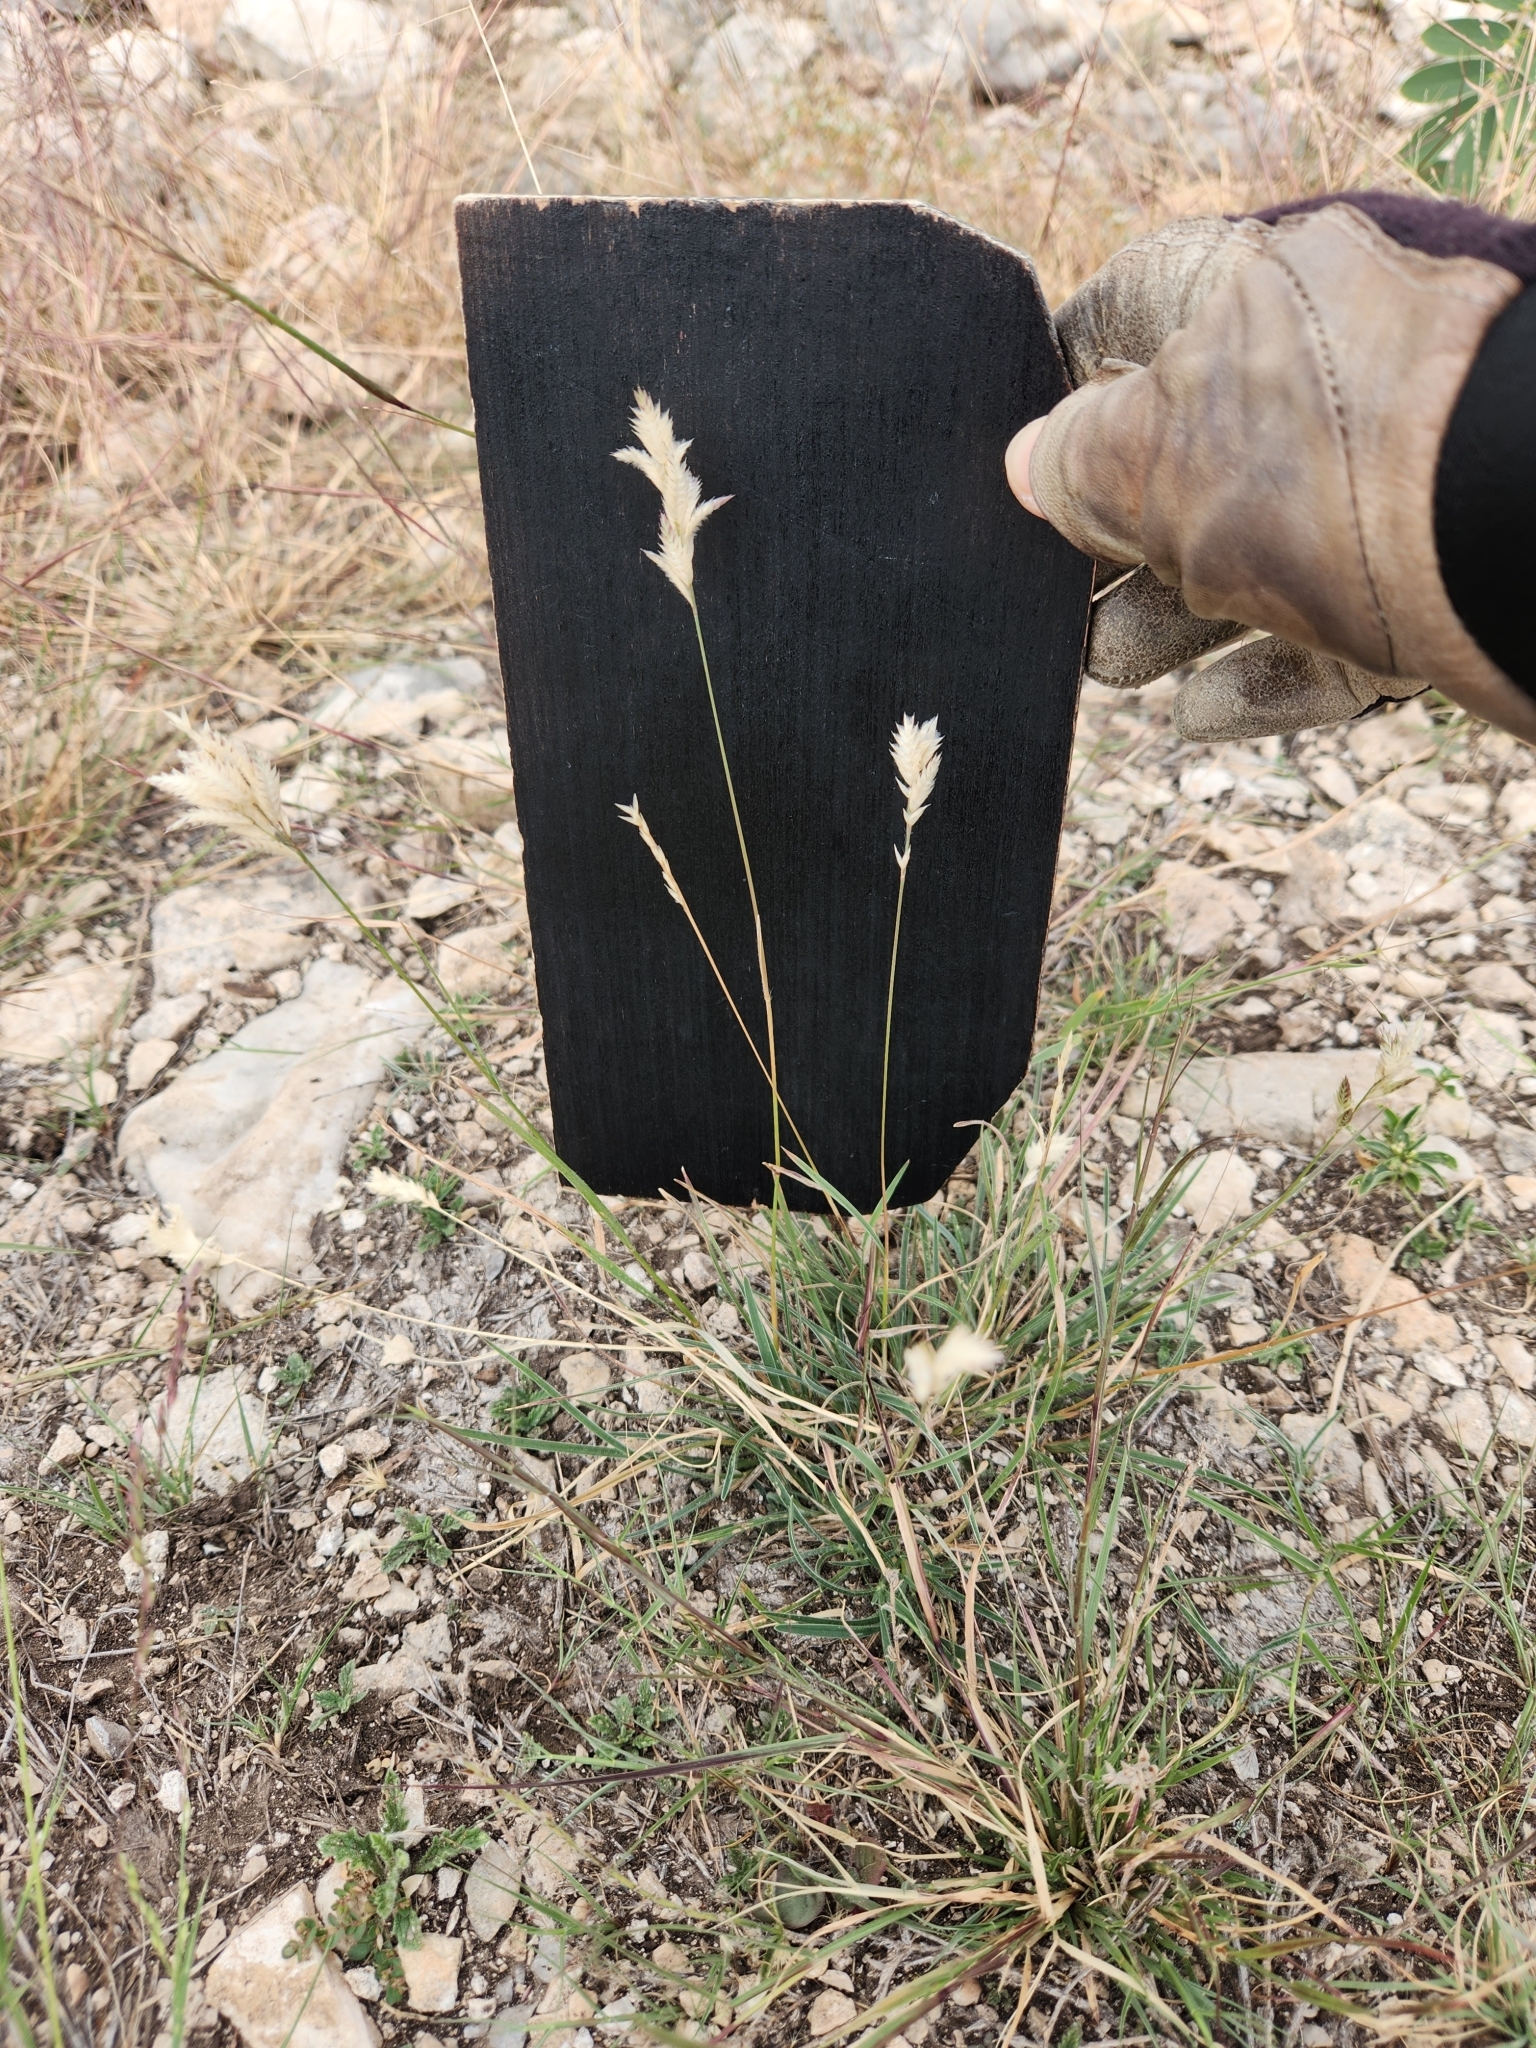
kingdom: Plantae
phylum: Tracheophyta
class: Liliopsida
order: Poales
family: Poaceae
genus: Erioneuron
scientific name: Erioneuron pilosum
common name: Hairy woolly grass
